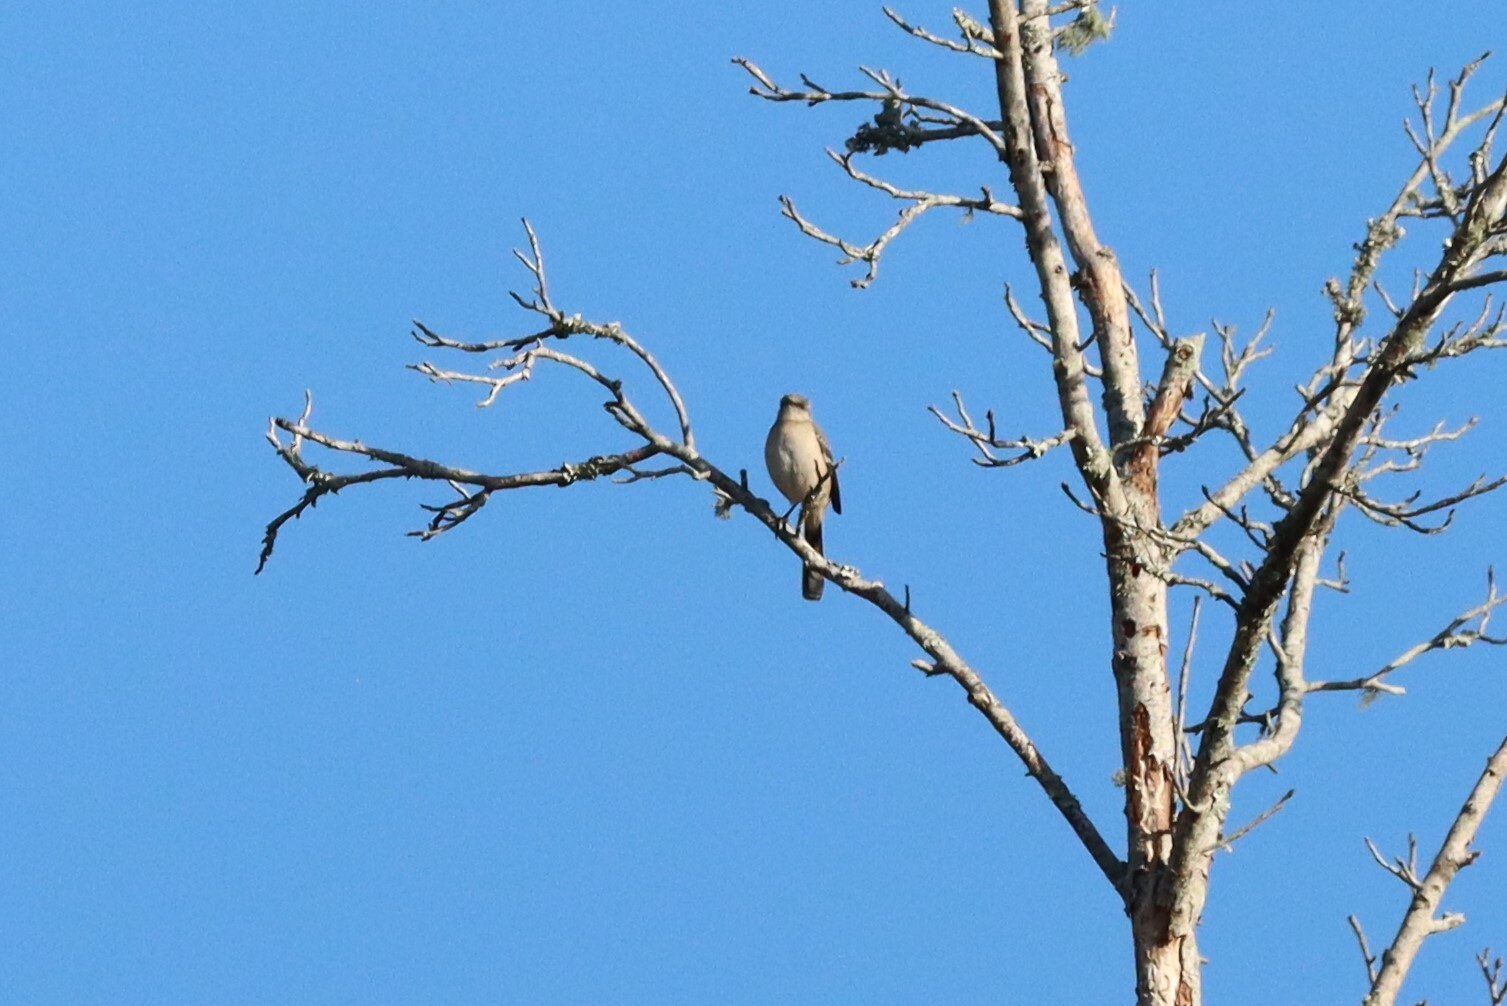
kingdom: Animalia
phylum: Chordata
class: Aves
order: Passeriformes
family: Mimidae
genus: Mimus
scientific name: Mimus polyglottos
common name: Northern mockingbird
